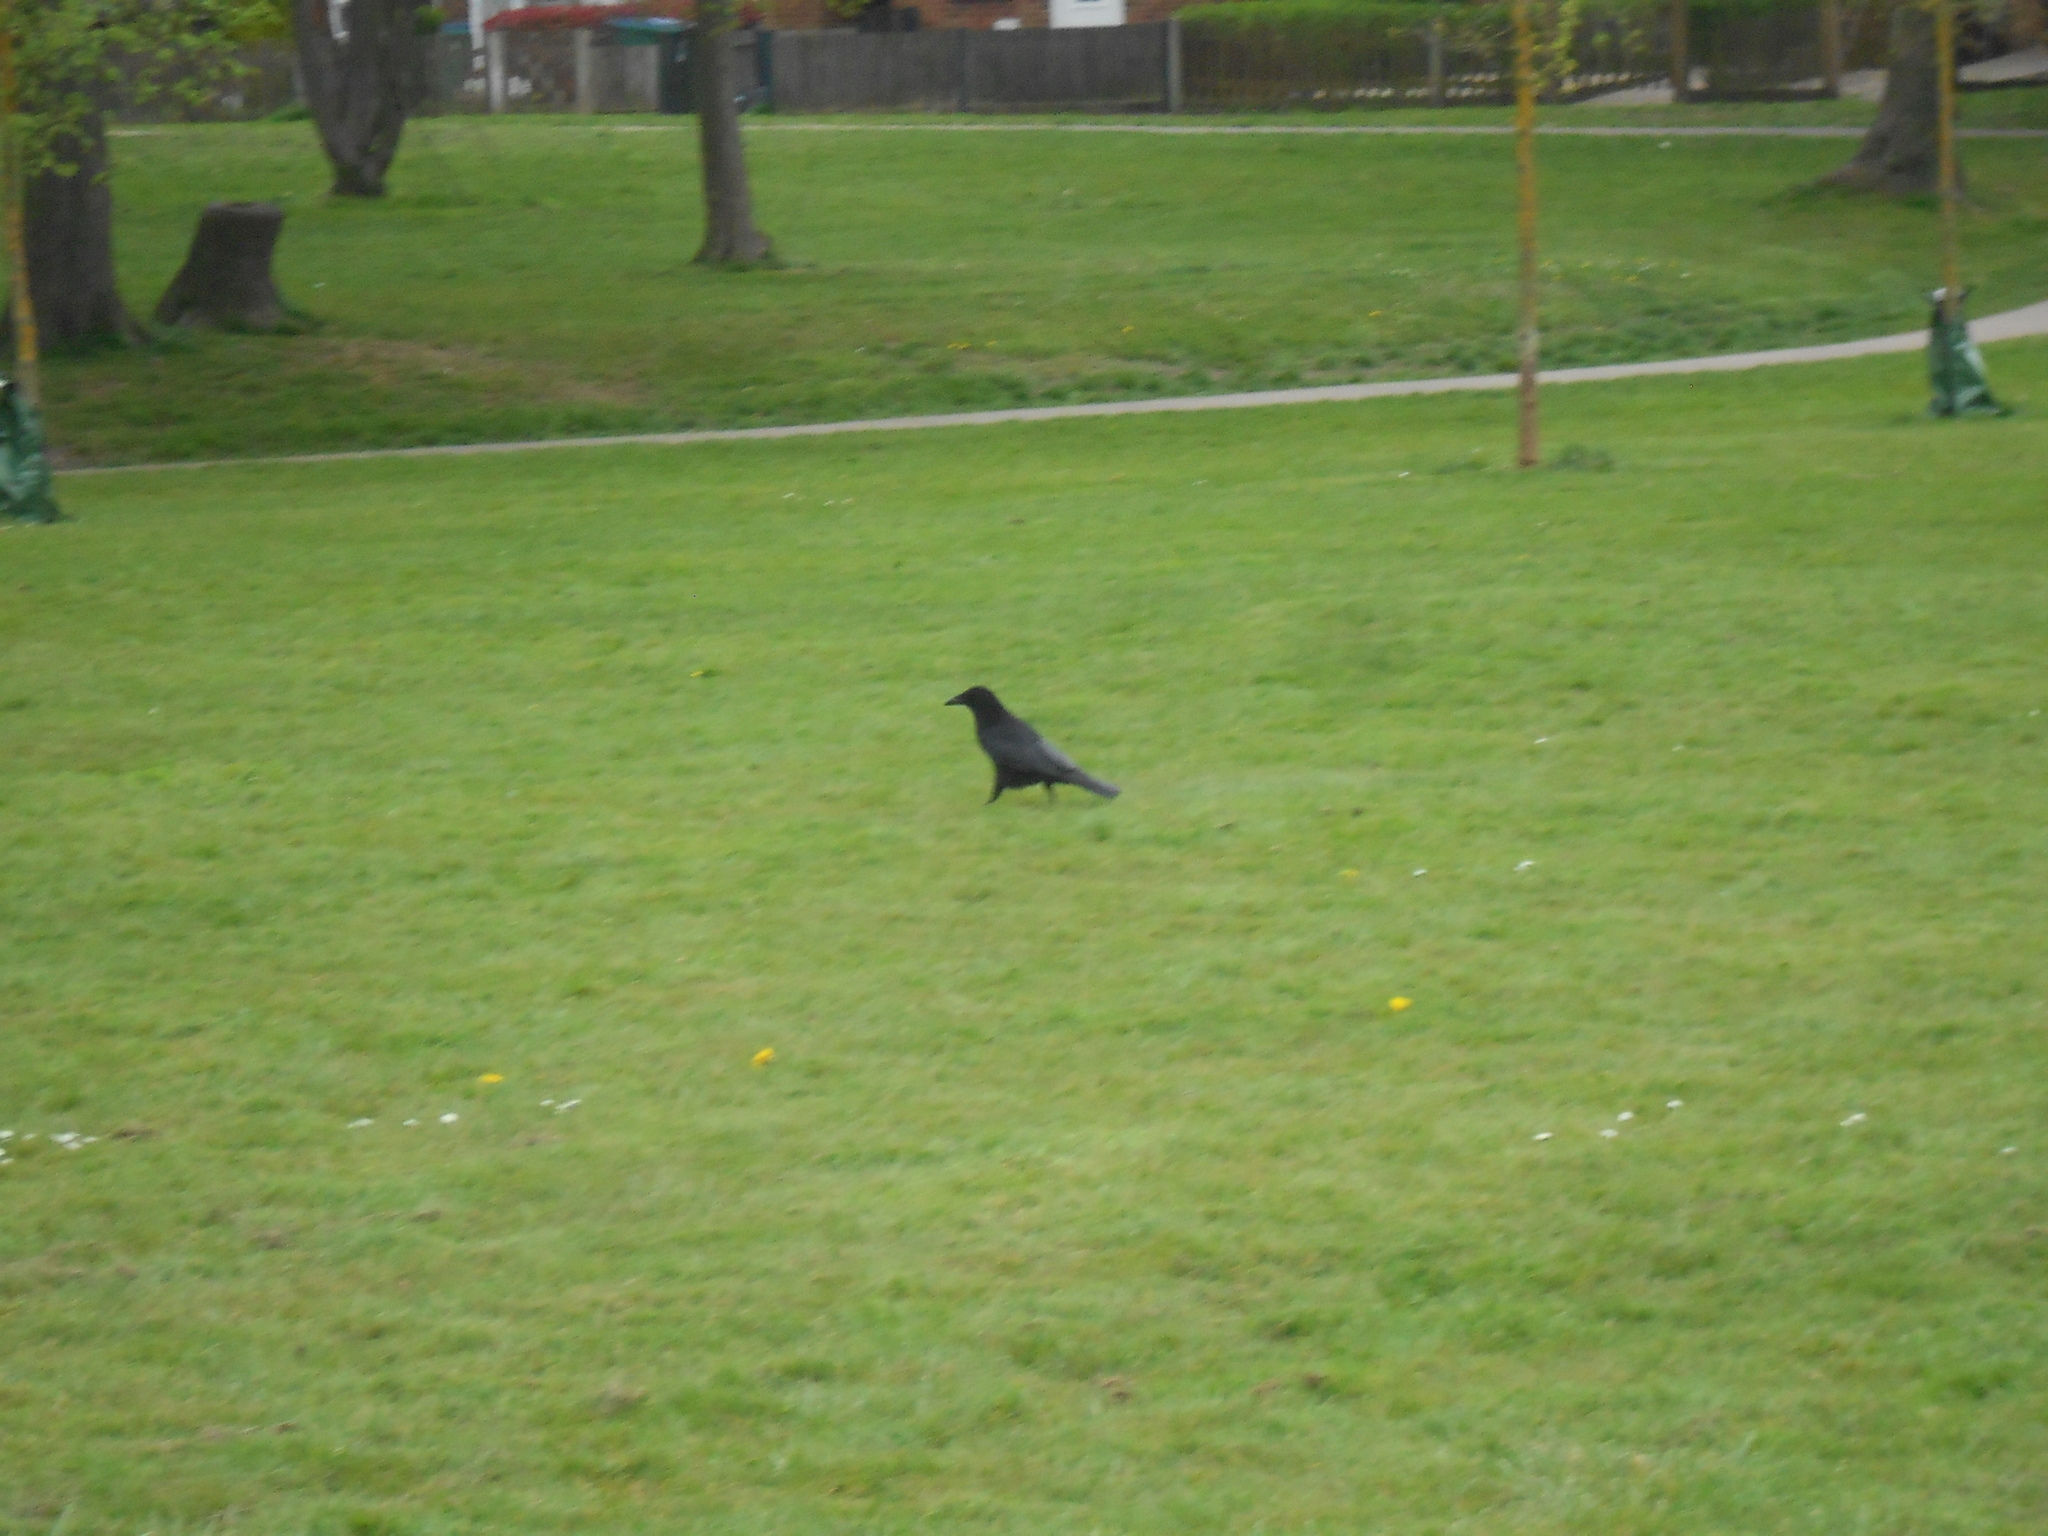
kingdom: Animalia
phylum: Chordata
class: Aves
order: Passeriformes
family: Corvidae
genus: Corvus
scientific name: Corvus corone
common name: Carrion crow
